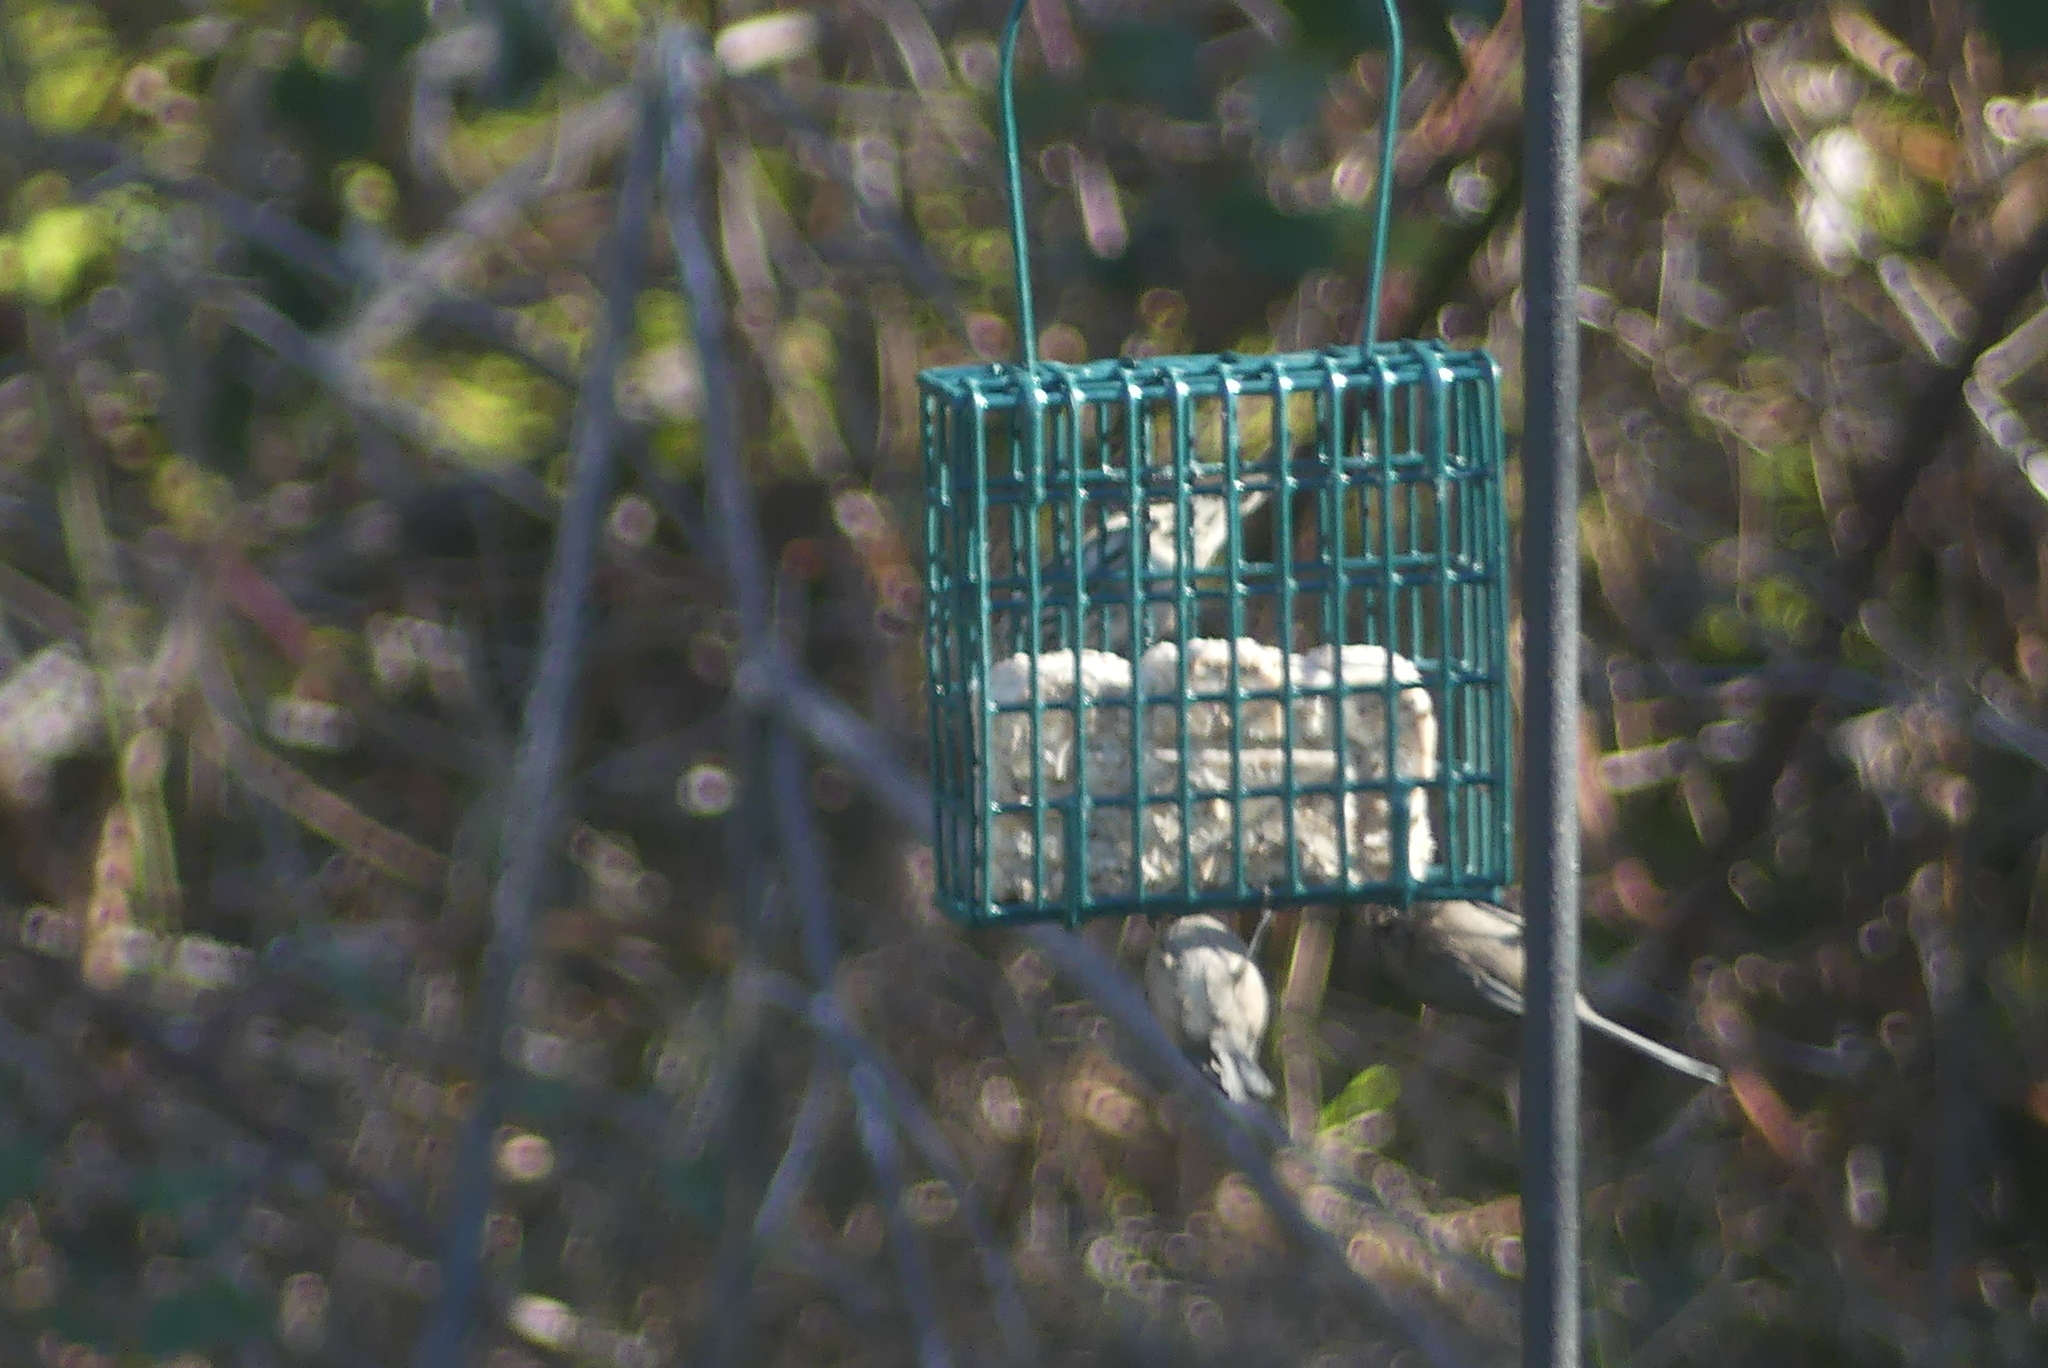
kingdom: Animalia
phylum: Chordata
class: Aves
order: Passeriformes
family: Aegithalidae
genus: Psaltriparus
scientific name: Psaltriparus minimus
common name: American bushtit
